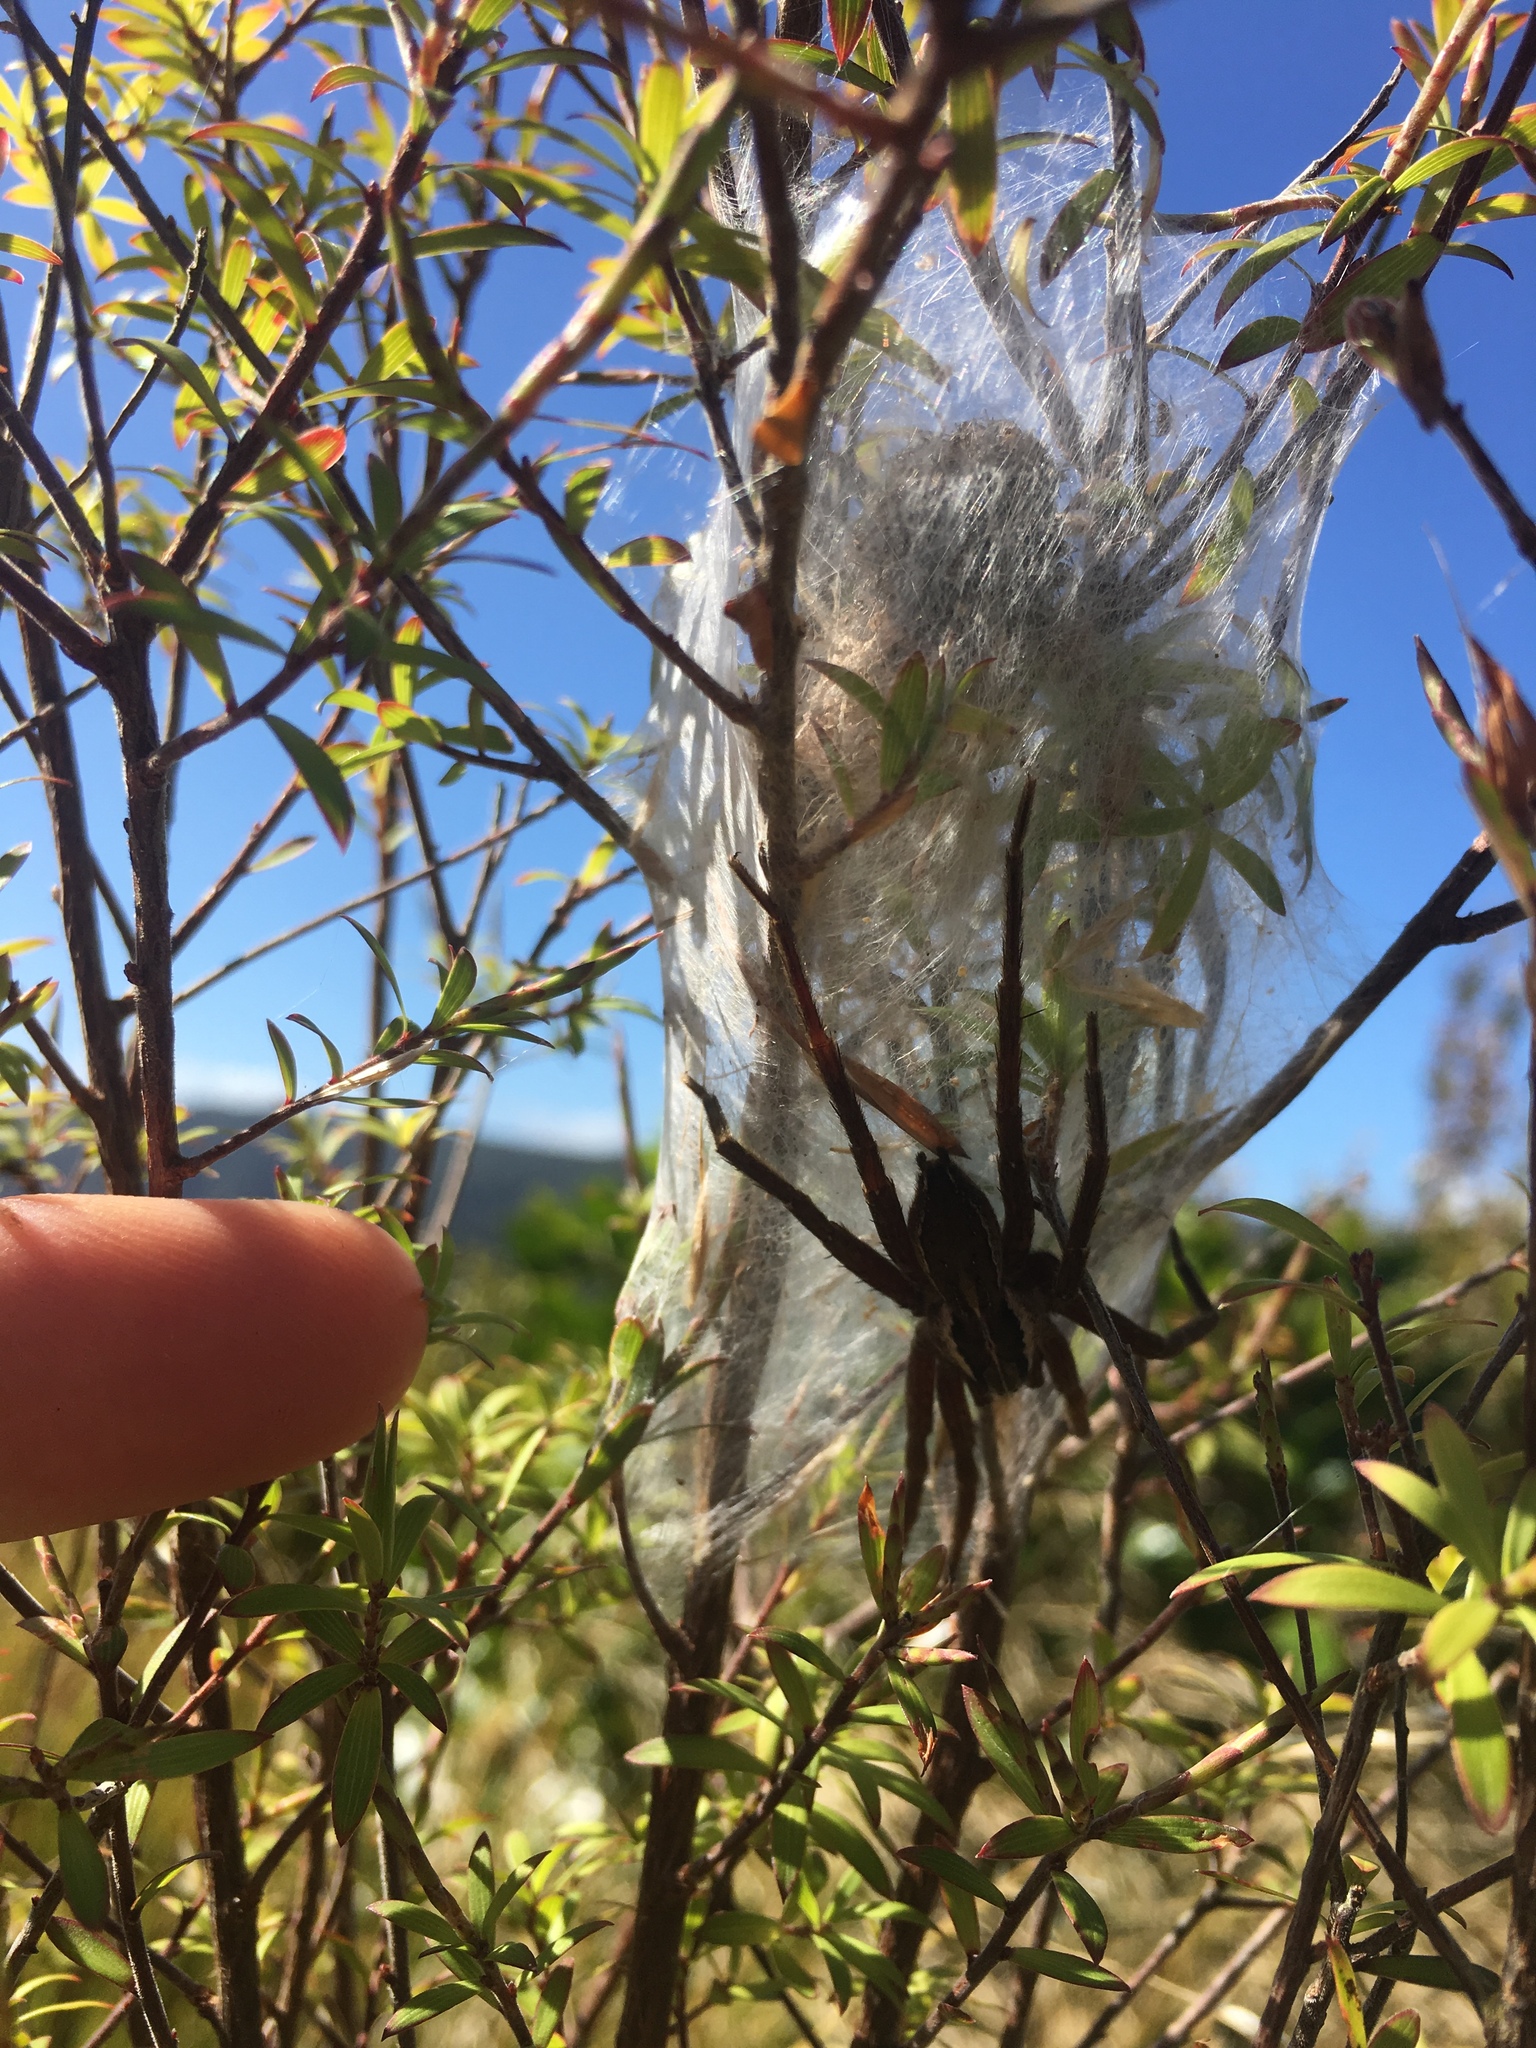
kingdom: Animalia
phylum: Arthropoda
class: Arachnida
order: Araneae
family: Pisauridae
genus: Dolomedes
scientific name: Dolomedes minor
